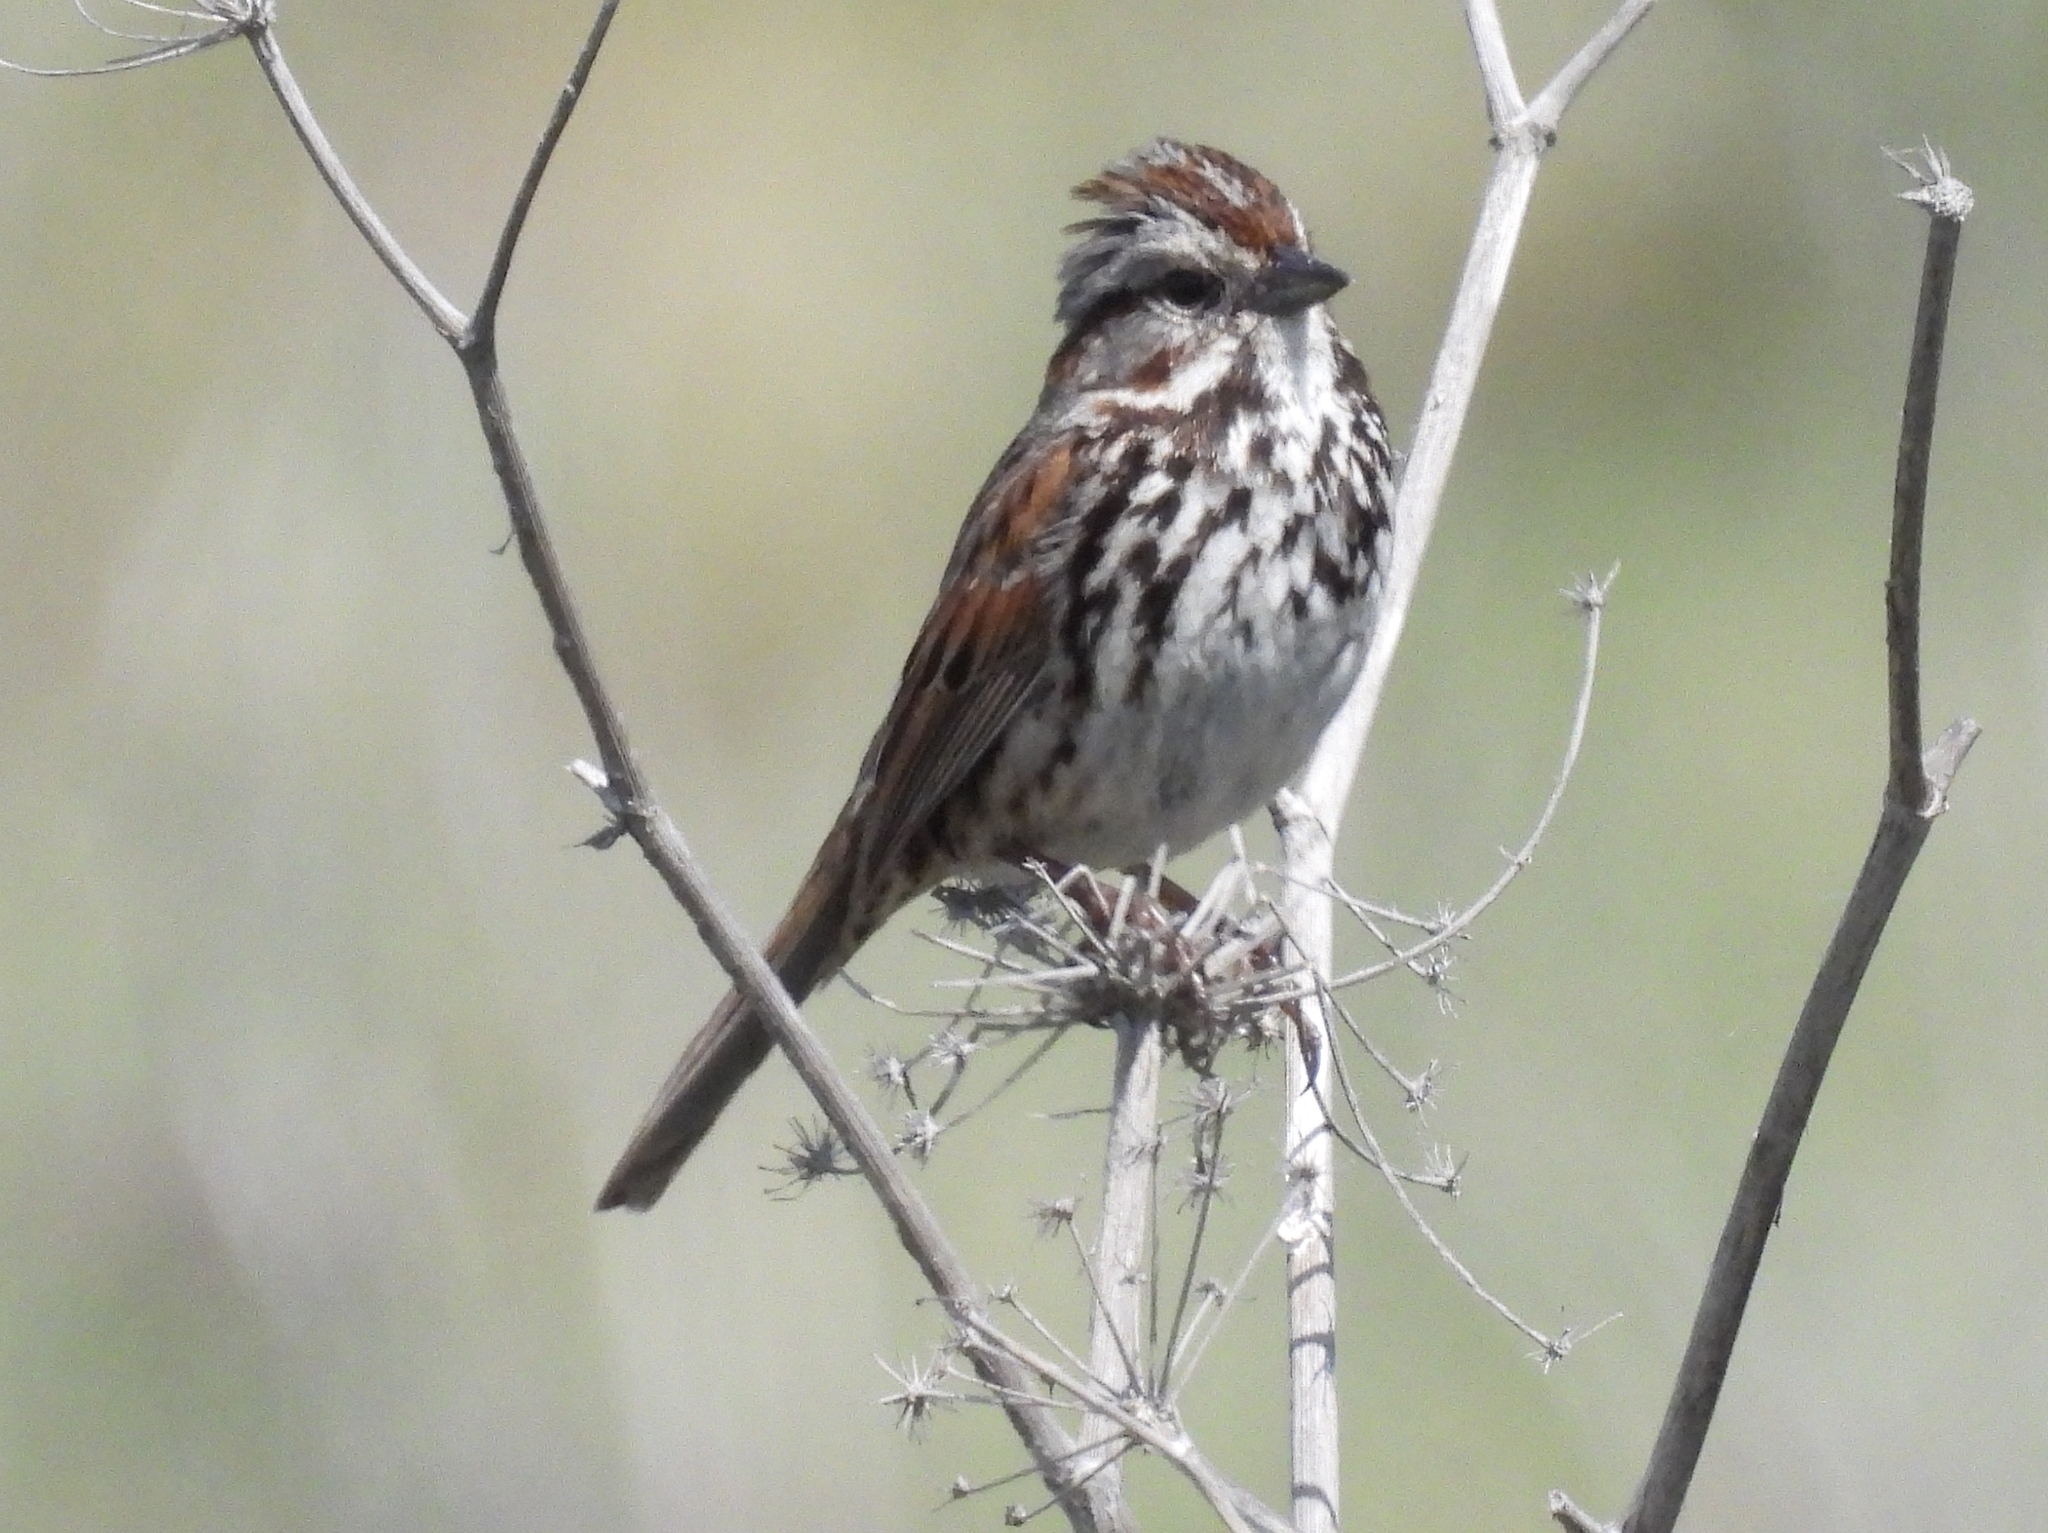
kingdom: Animalia
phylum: Chordata
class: Aves
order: Passeriformes
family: Passerellidae
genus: Melospiza
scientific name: Melospiza melodia
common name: Song sparrow
